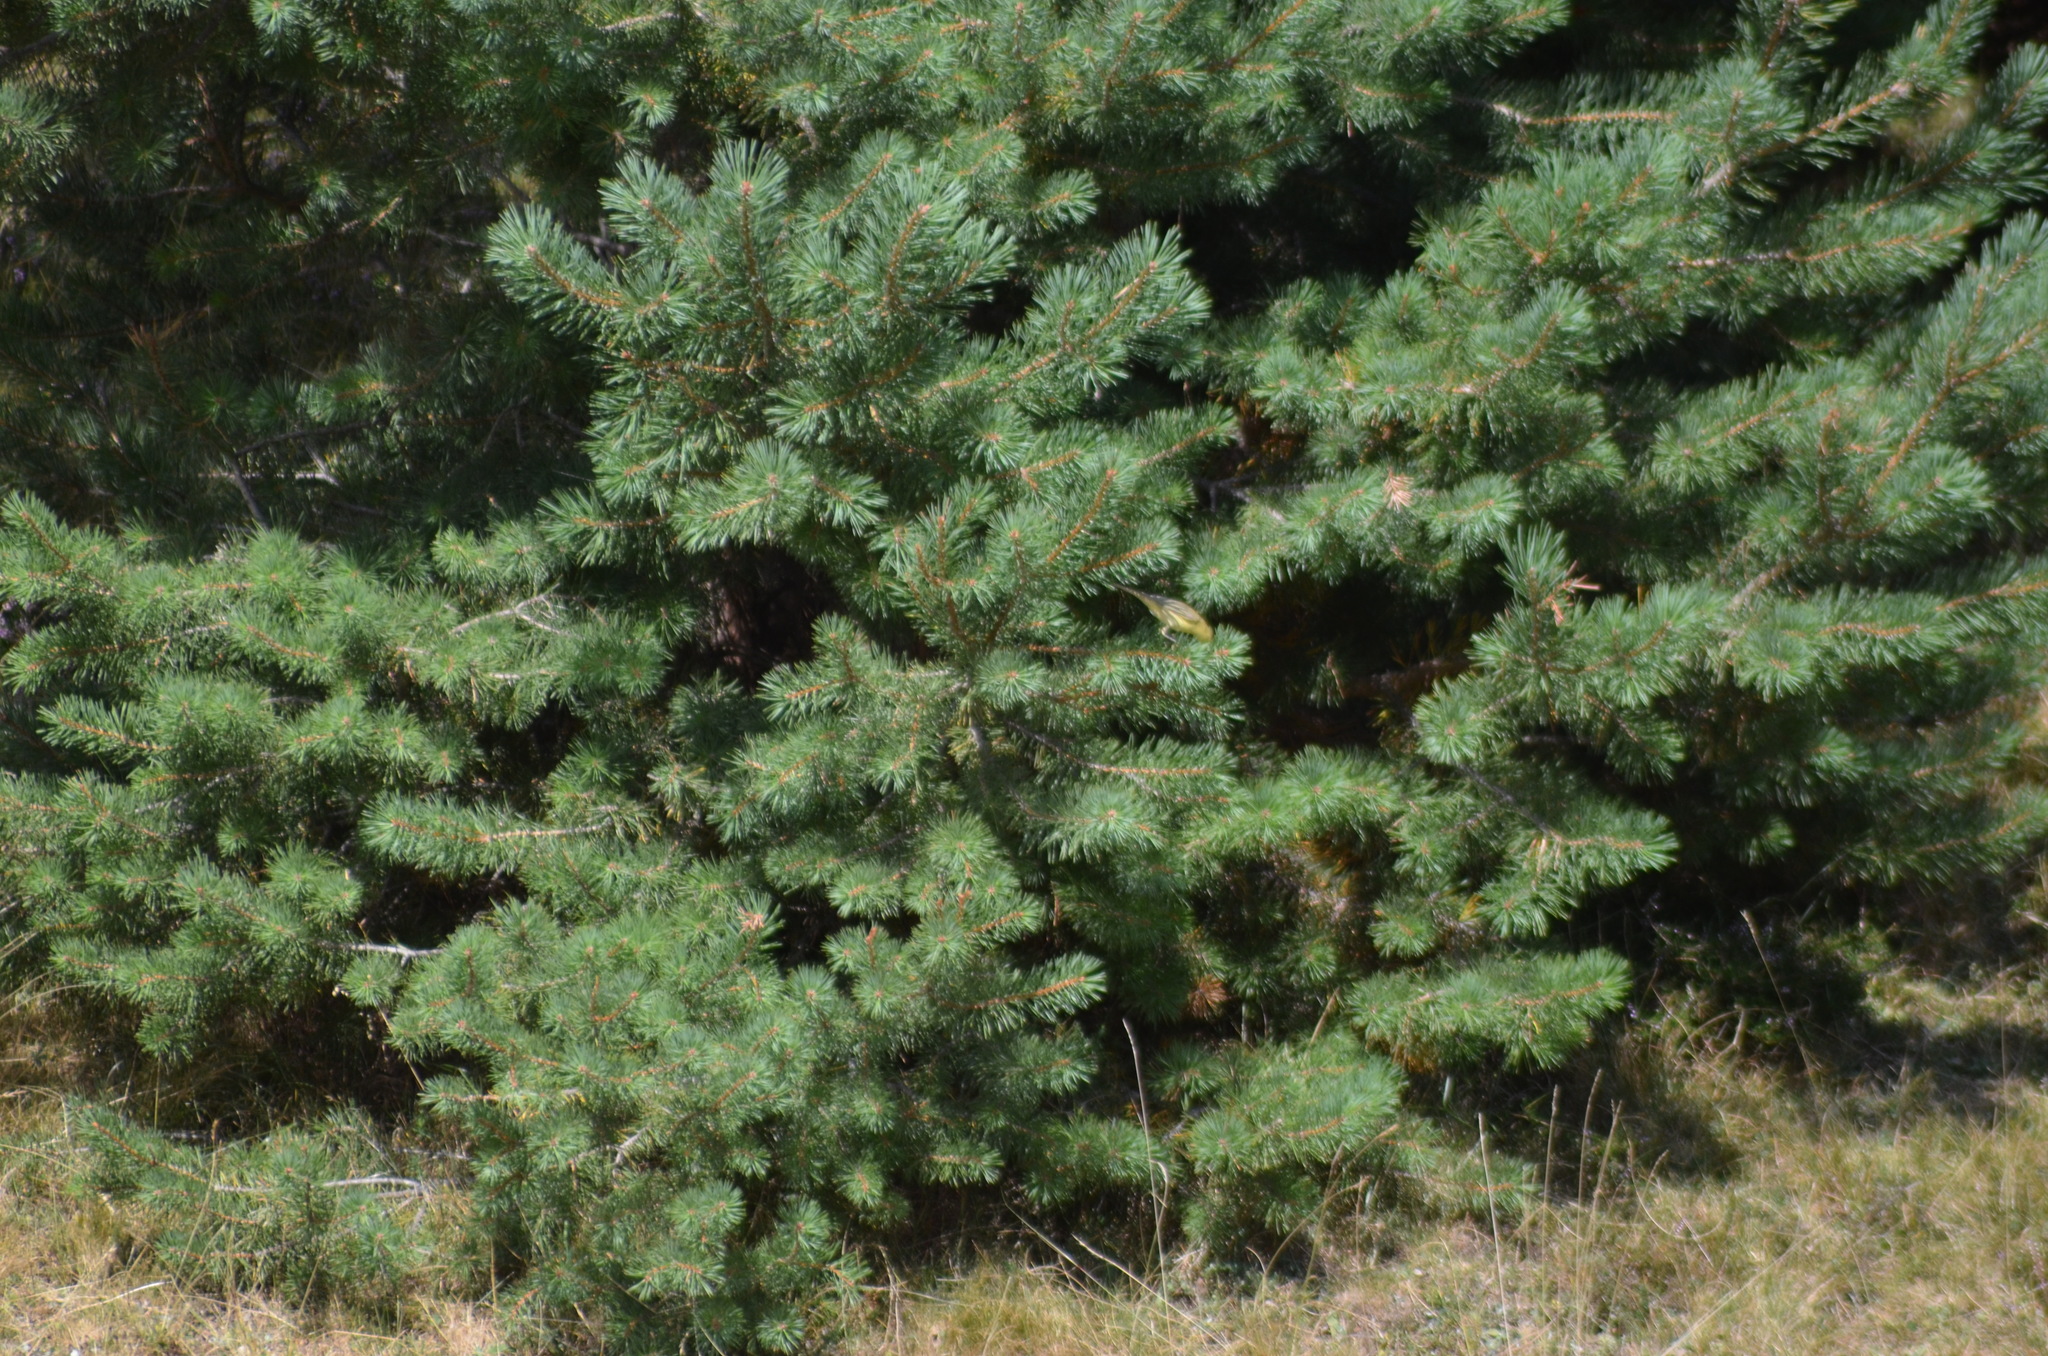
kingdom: Animalia
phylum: Chordata
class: Aves
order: Passeriformes
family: Phylloscopidae
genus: Phylloscopus
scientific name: Phylloscopus trochilus
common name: Willow warbler
